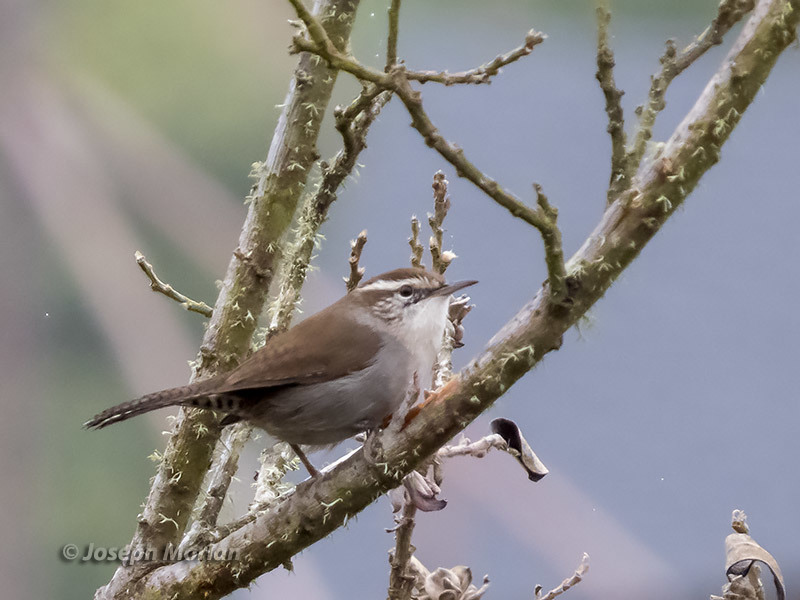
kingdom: Animalia
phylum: Chordata
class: Aves
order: Passeriformes
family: Troglodytidae
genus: Thryomanes
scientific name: Thryomanes bewickii
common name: Bewick's wren
